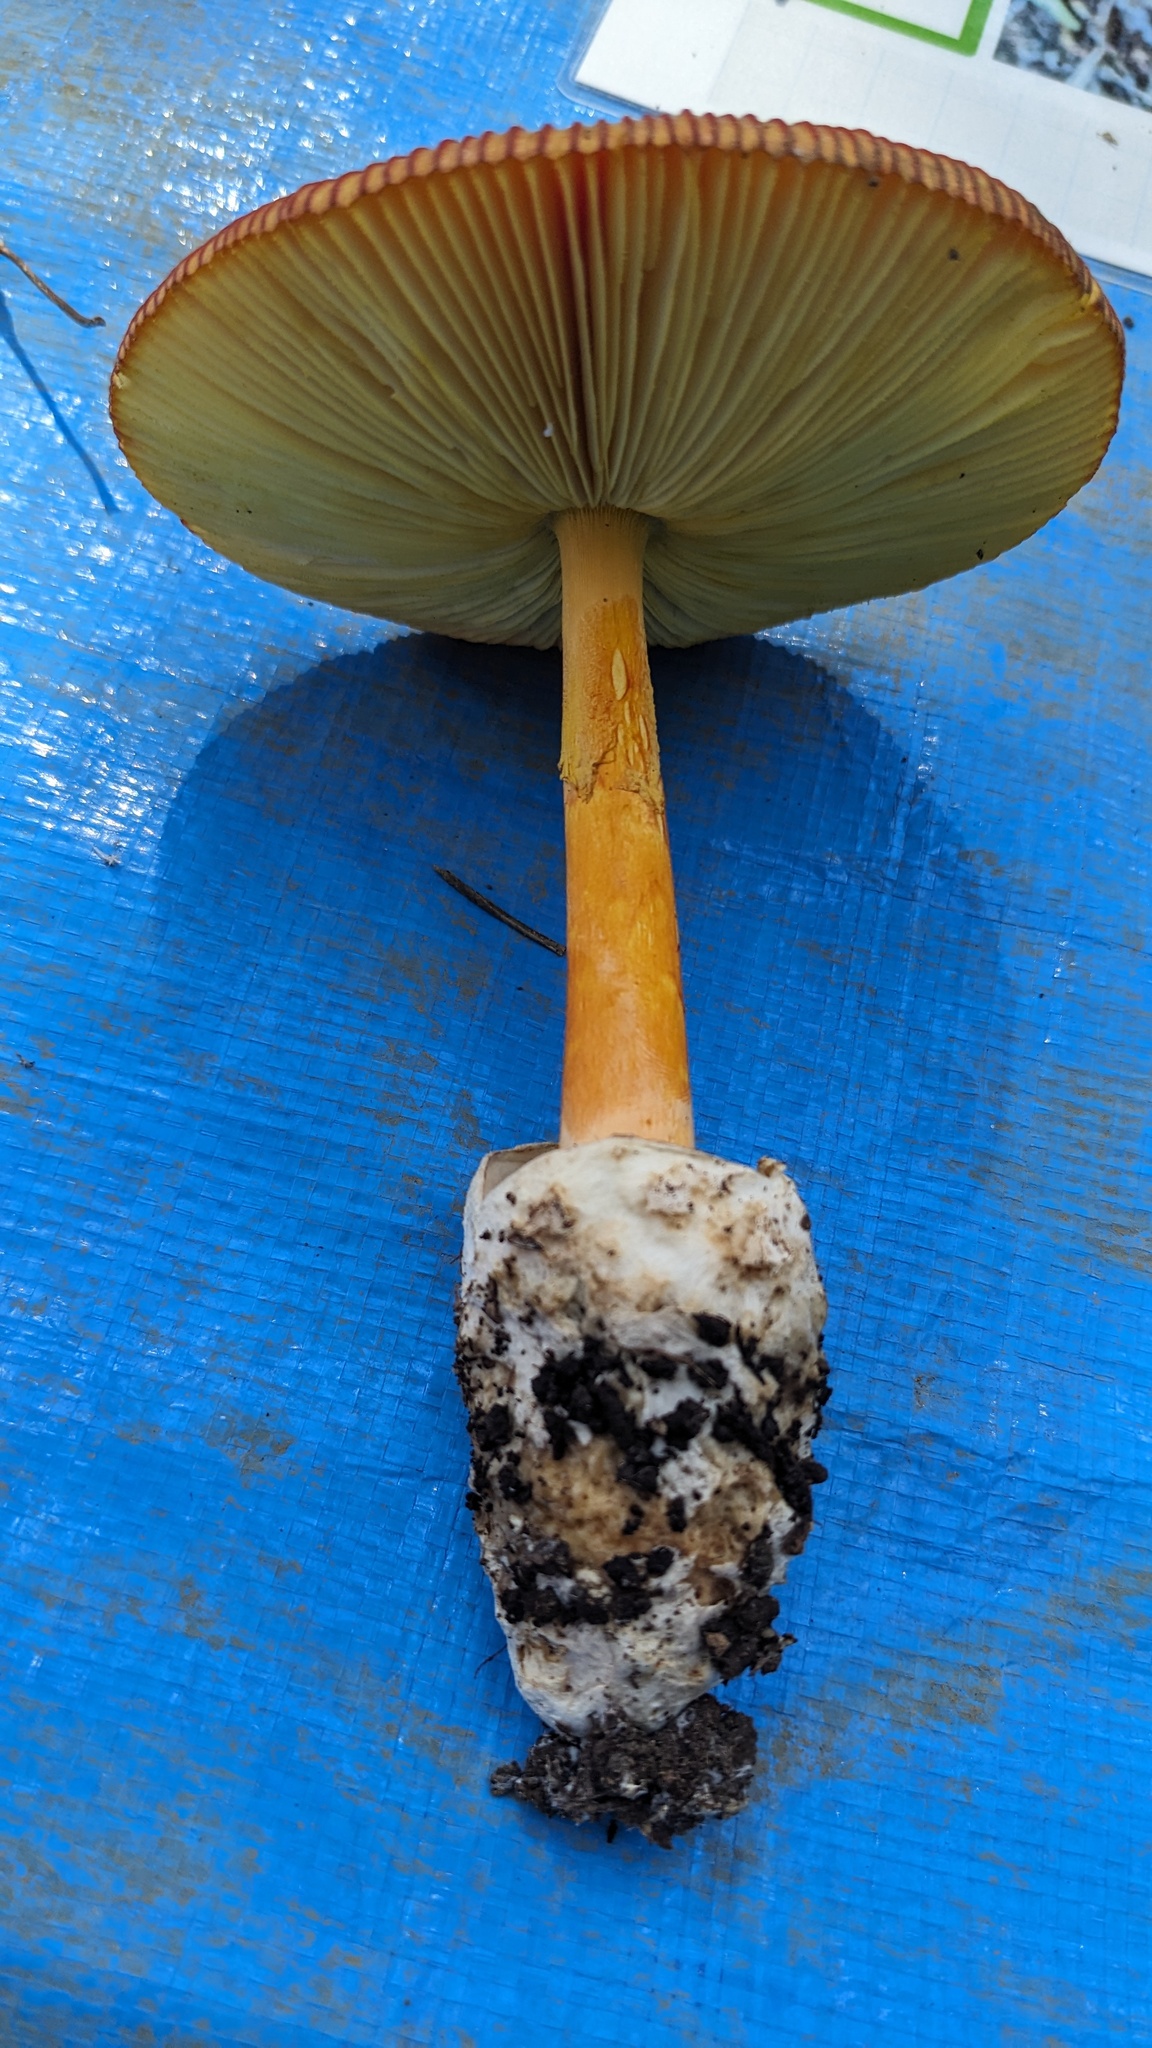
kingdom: Fungi
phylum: Basidiomycota
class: Agaricomycetes
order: Agaricales
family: Amanitaceae
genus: Amanita
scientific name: Amanita caesareoides
